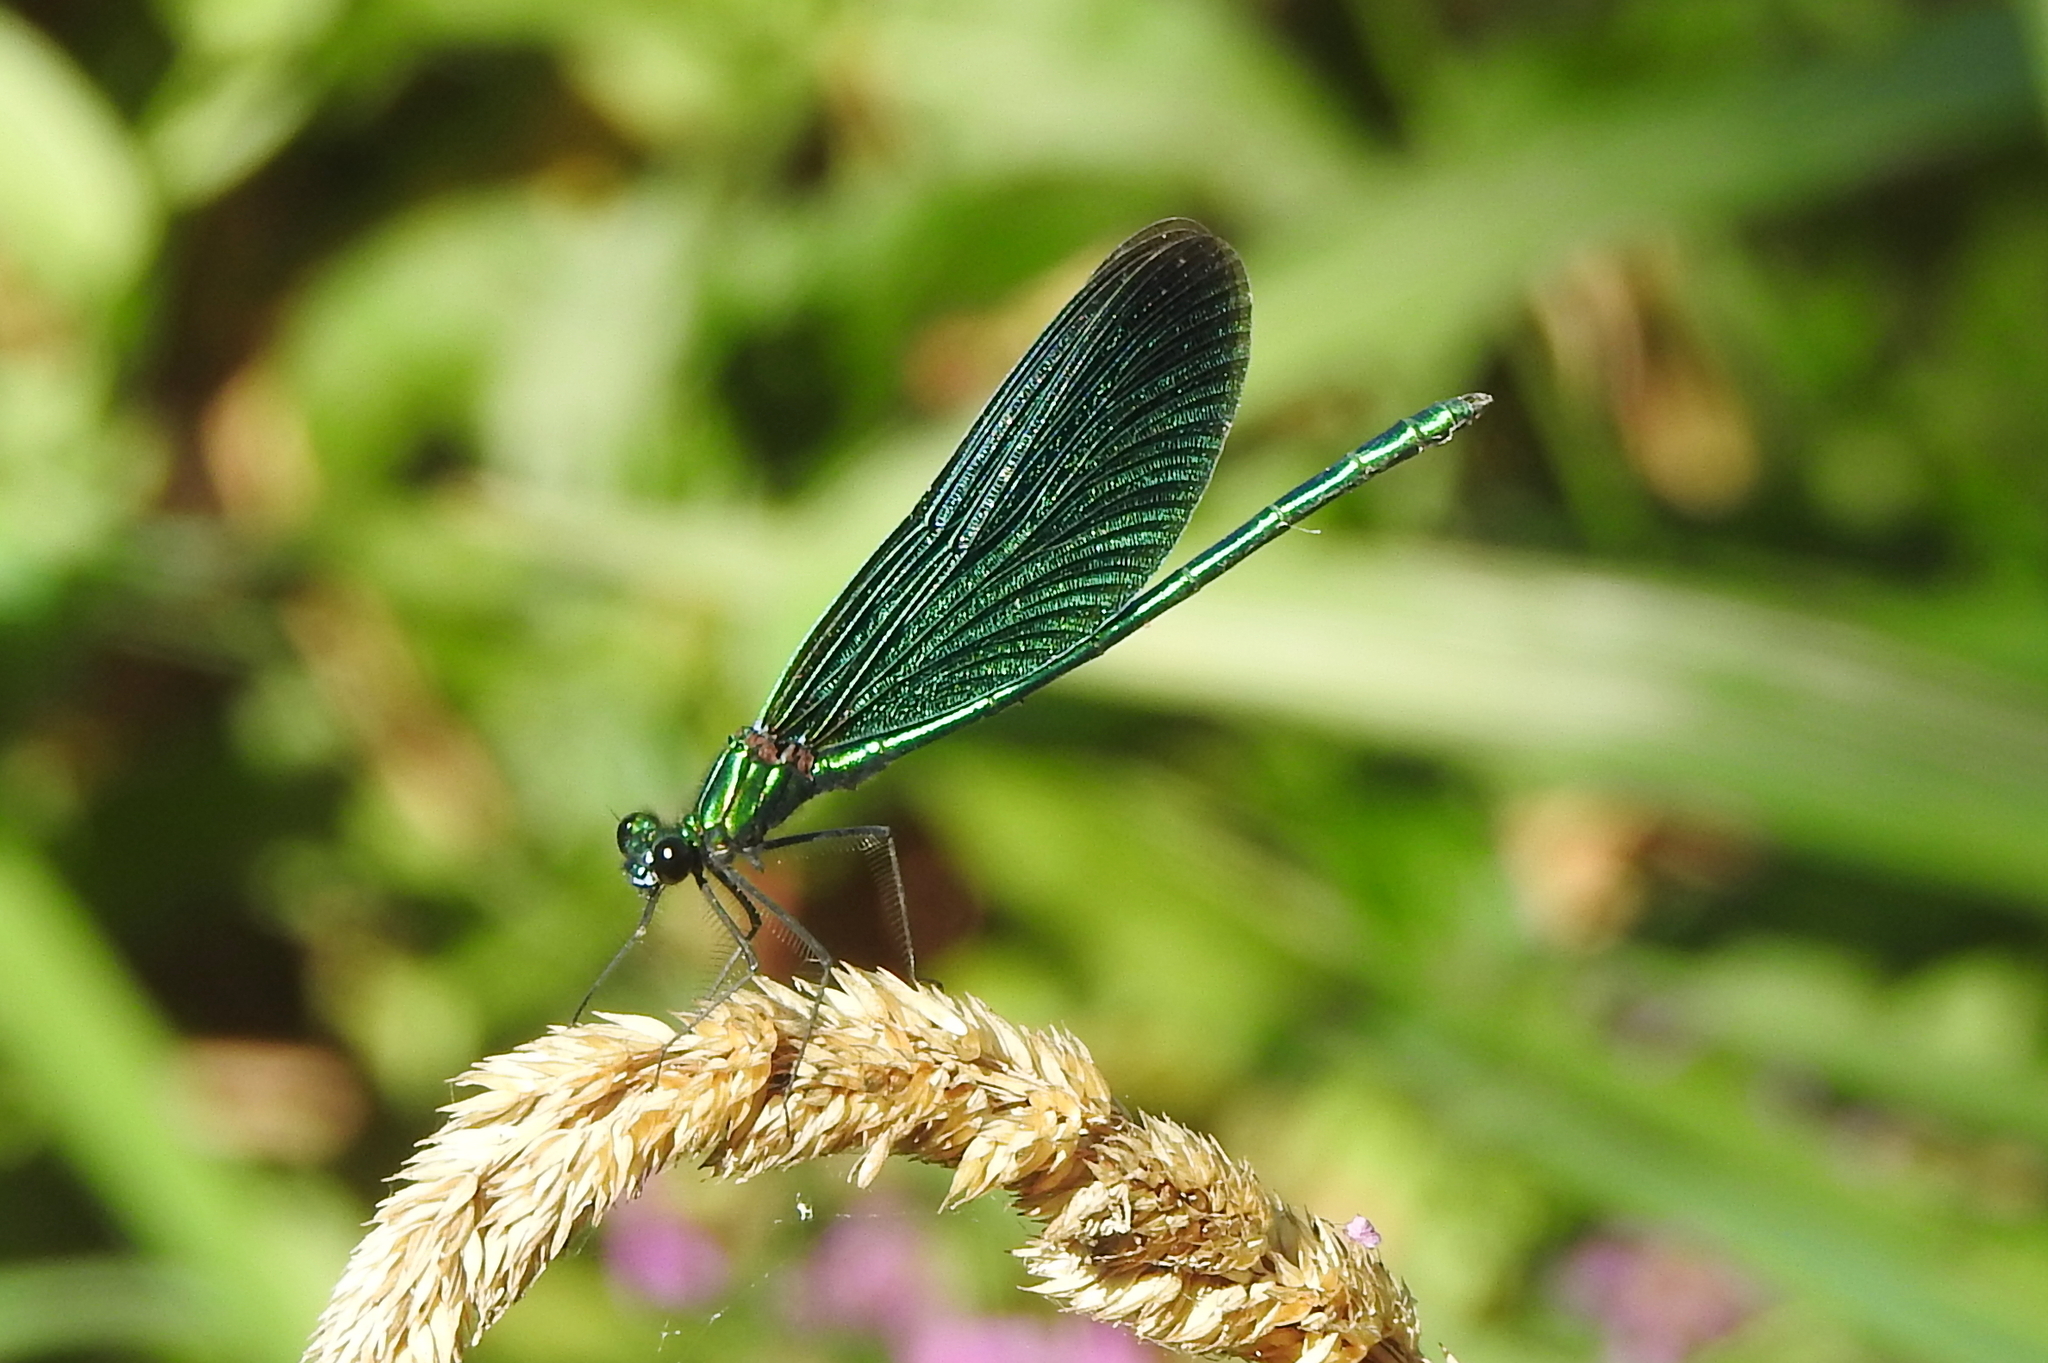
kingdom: Animalia
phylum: Arthropoda
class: Insecta
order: Odonata
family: Calopterygidae
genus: Calopteryx
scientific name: Calopteryx virgo
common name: Beautiful demoiselle
